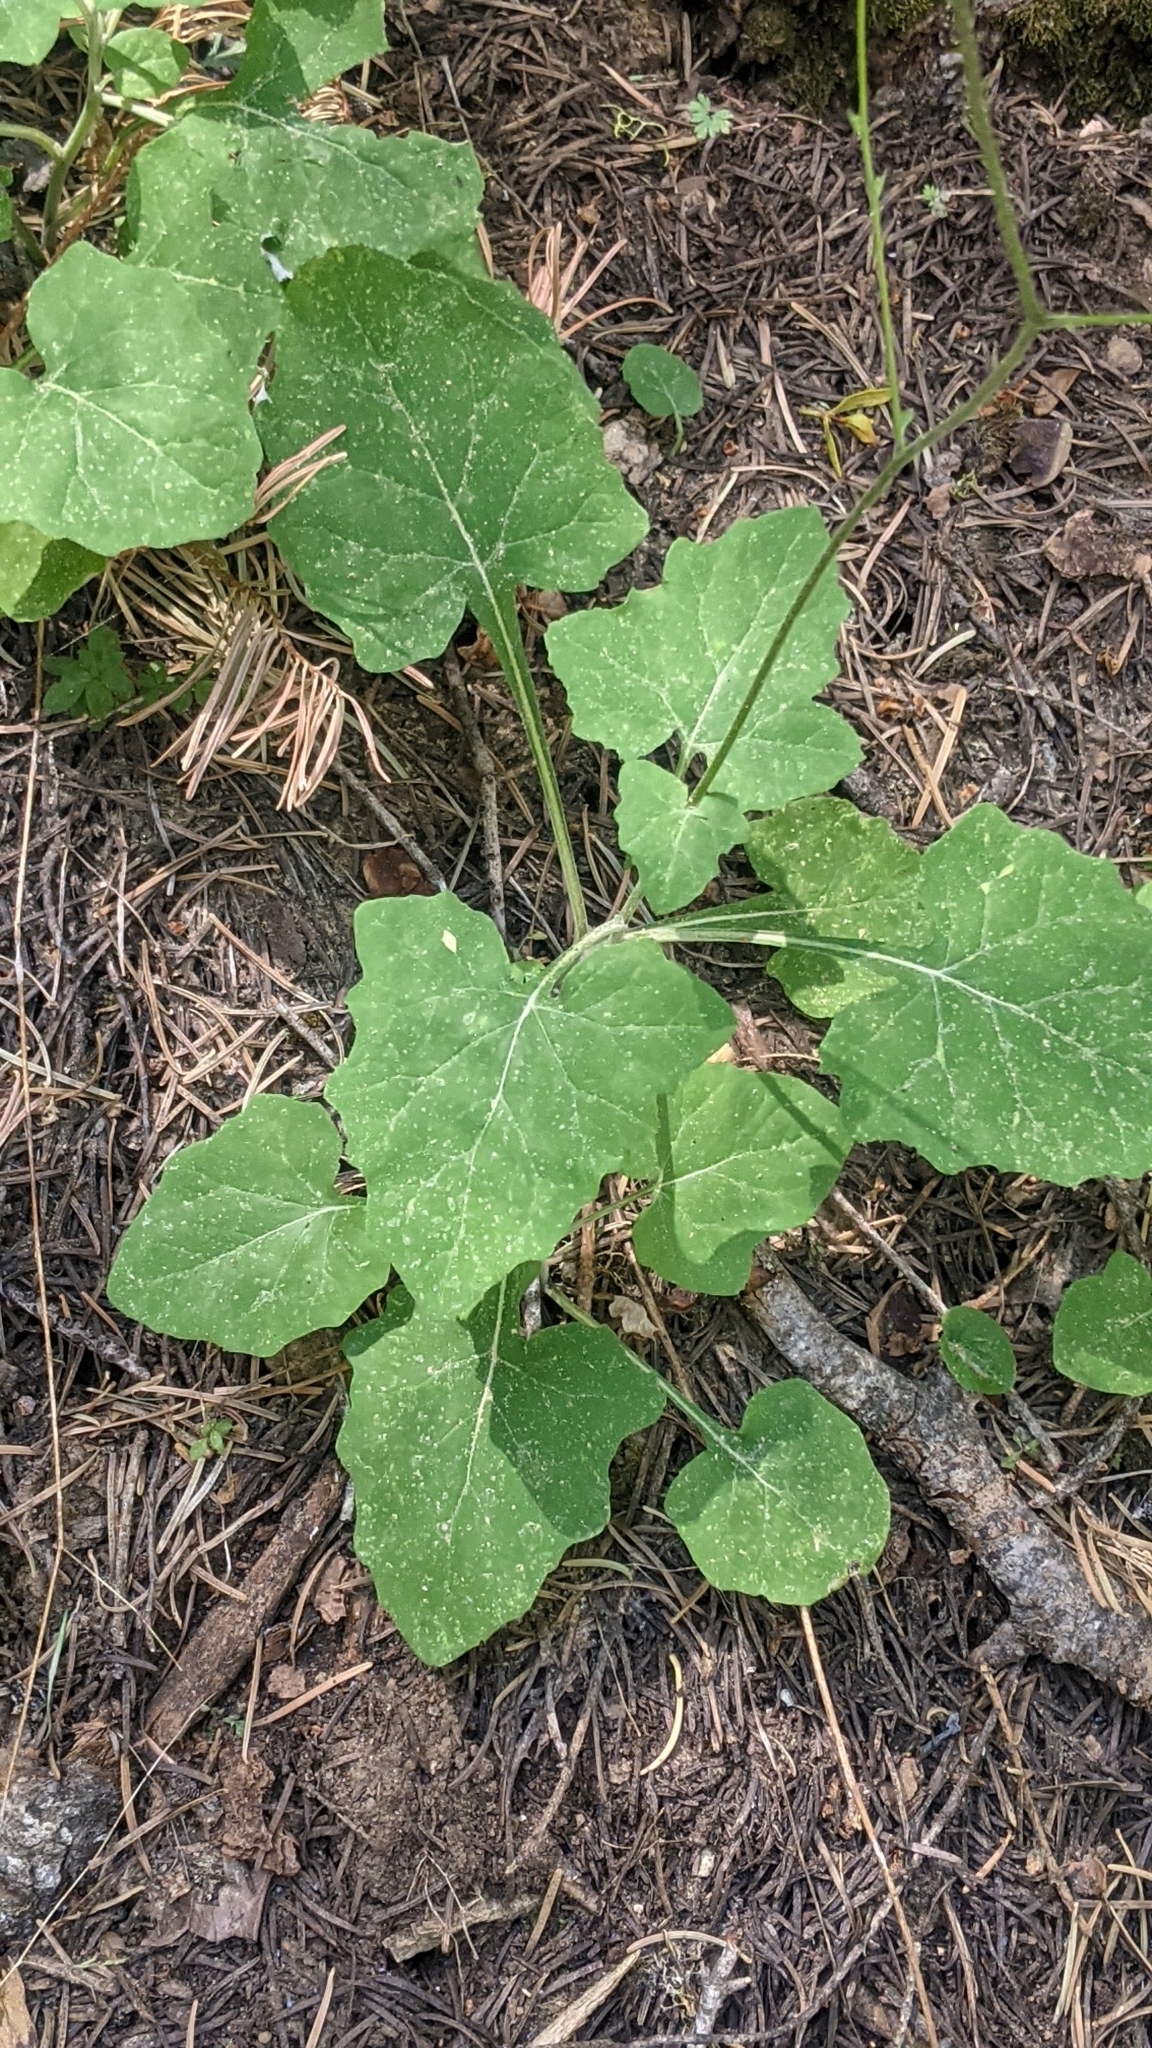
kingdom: Plantae
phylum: Tracheophyta
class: Magnoliopsida
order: Asterales
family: Asteraceae
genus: Adenocaulon
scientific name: Adenocaulon bicolor
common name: Trailplant
